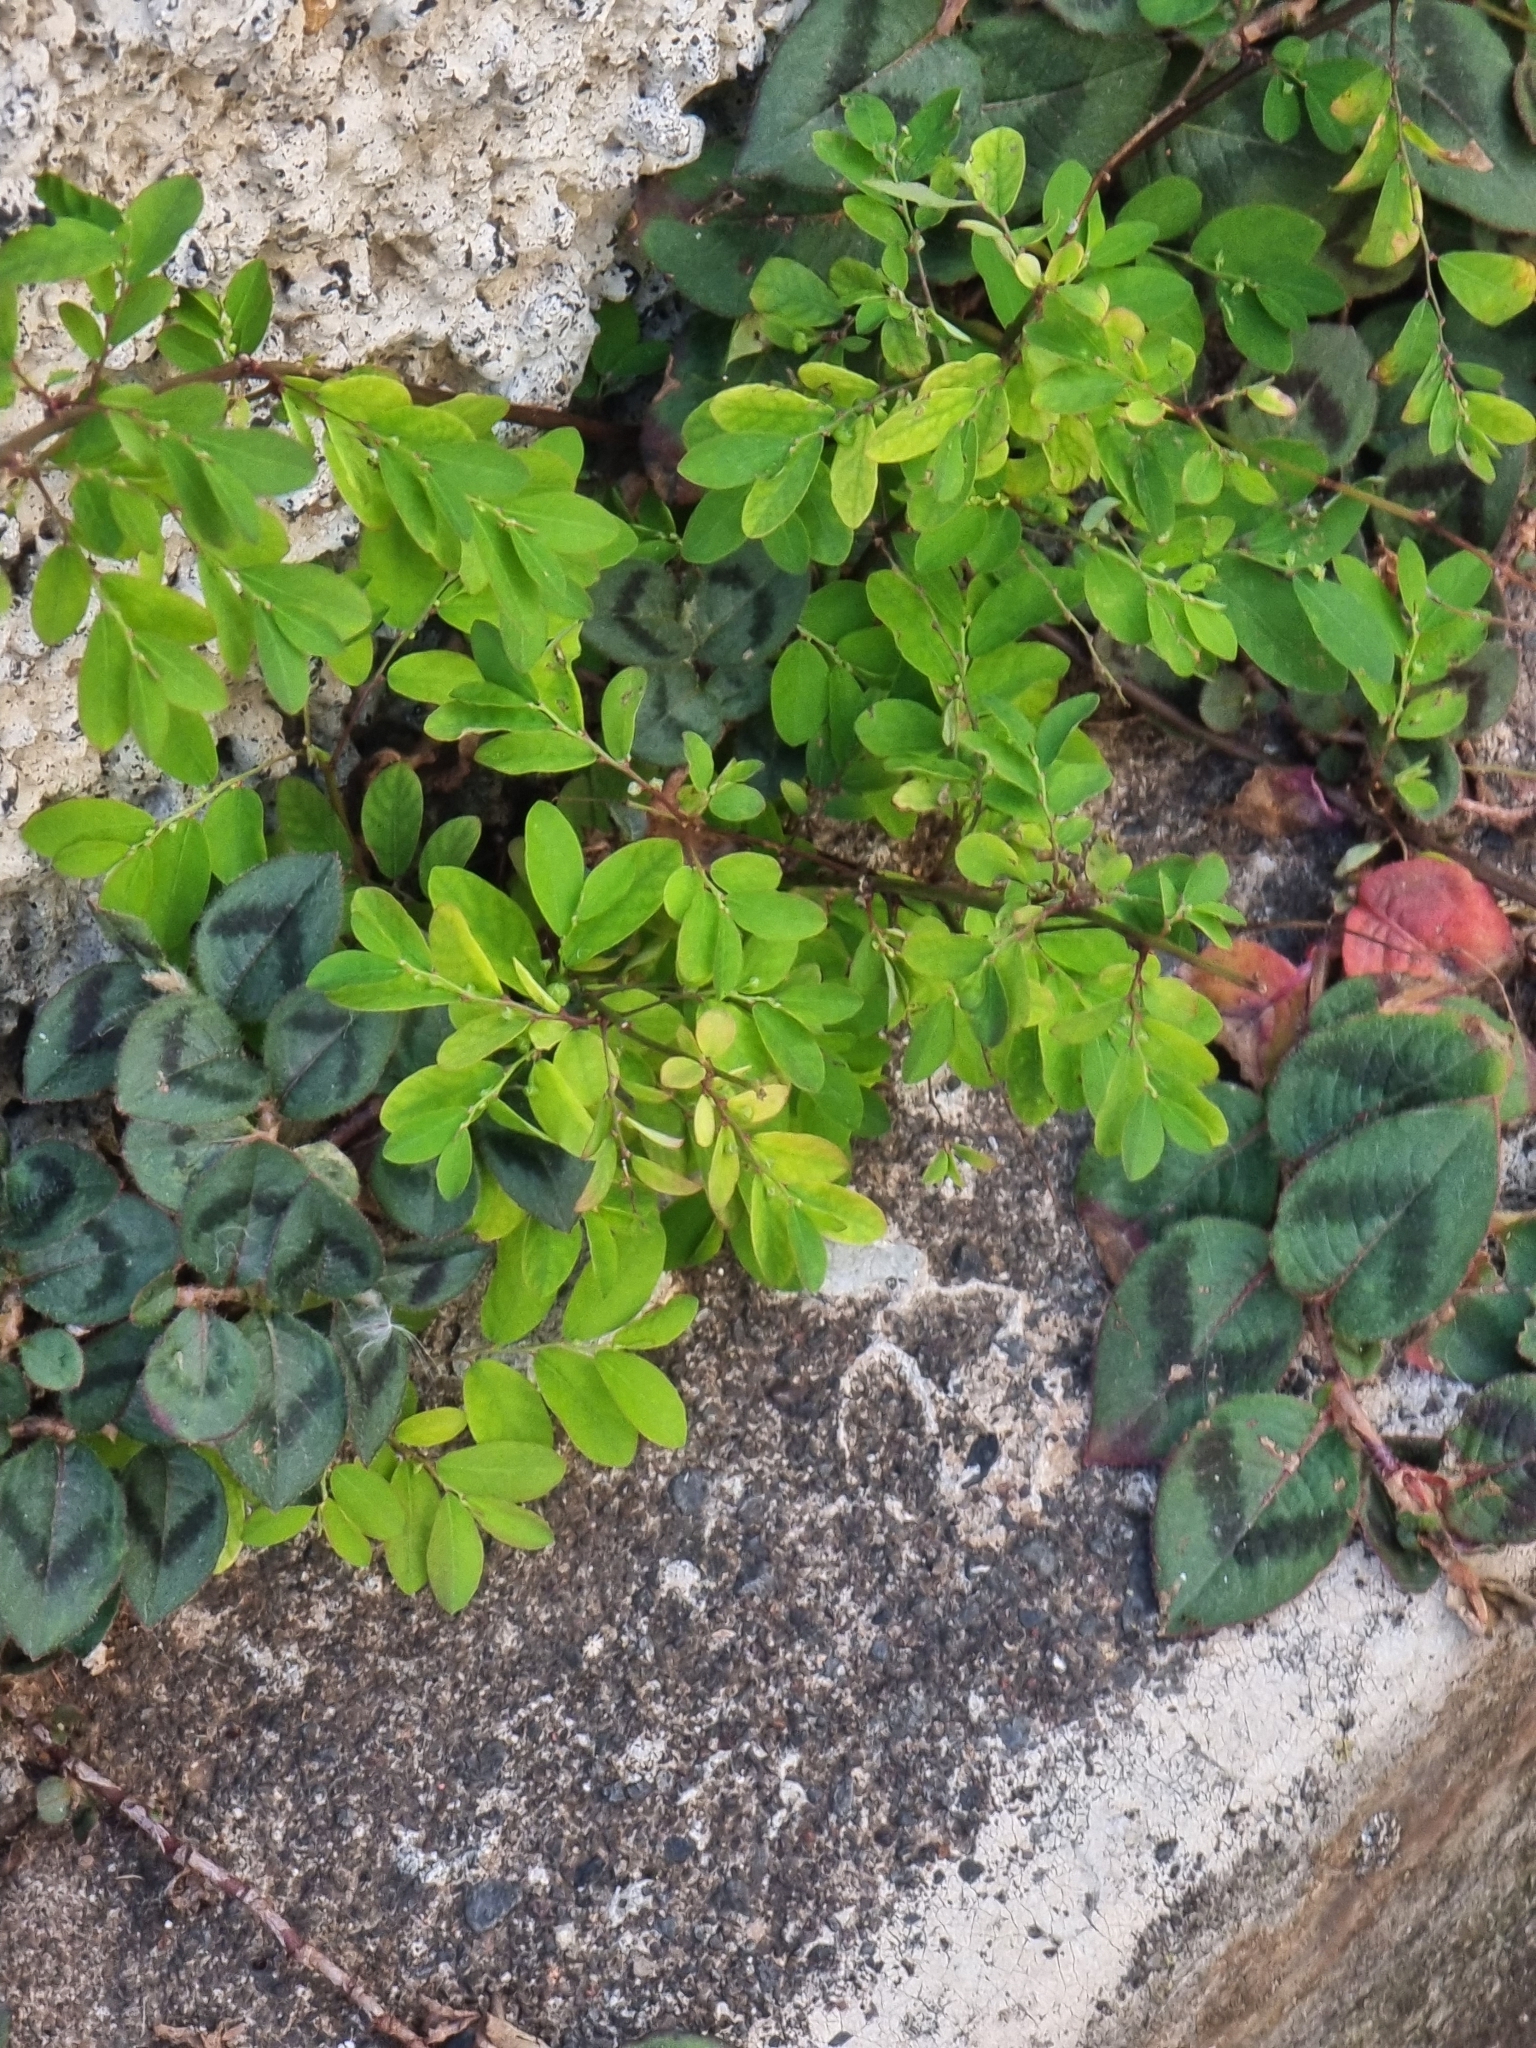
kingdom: Plantae
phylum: Tracheophyta
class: Magnoliopsida
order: Malpighiales
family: Phyllanthaceae
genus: Phyllanthus
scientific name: Phyllanthus tenellus
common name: Mascarene island leaf-flower
